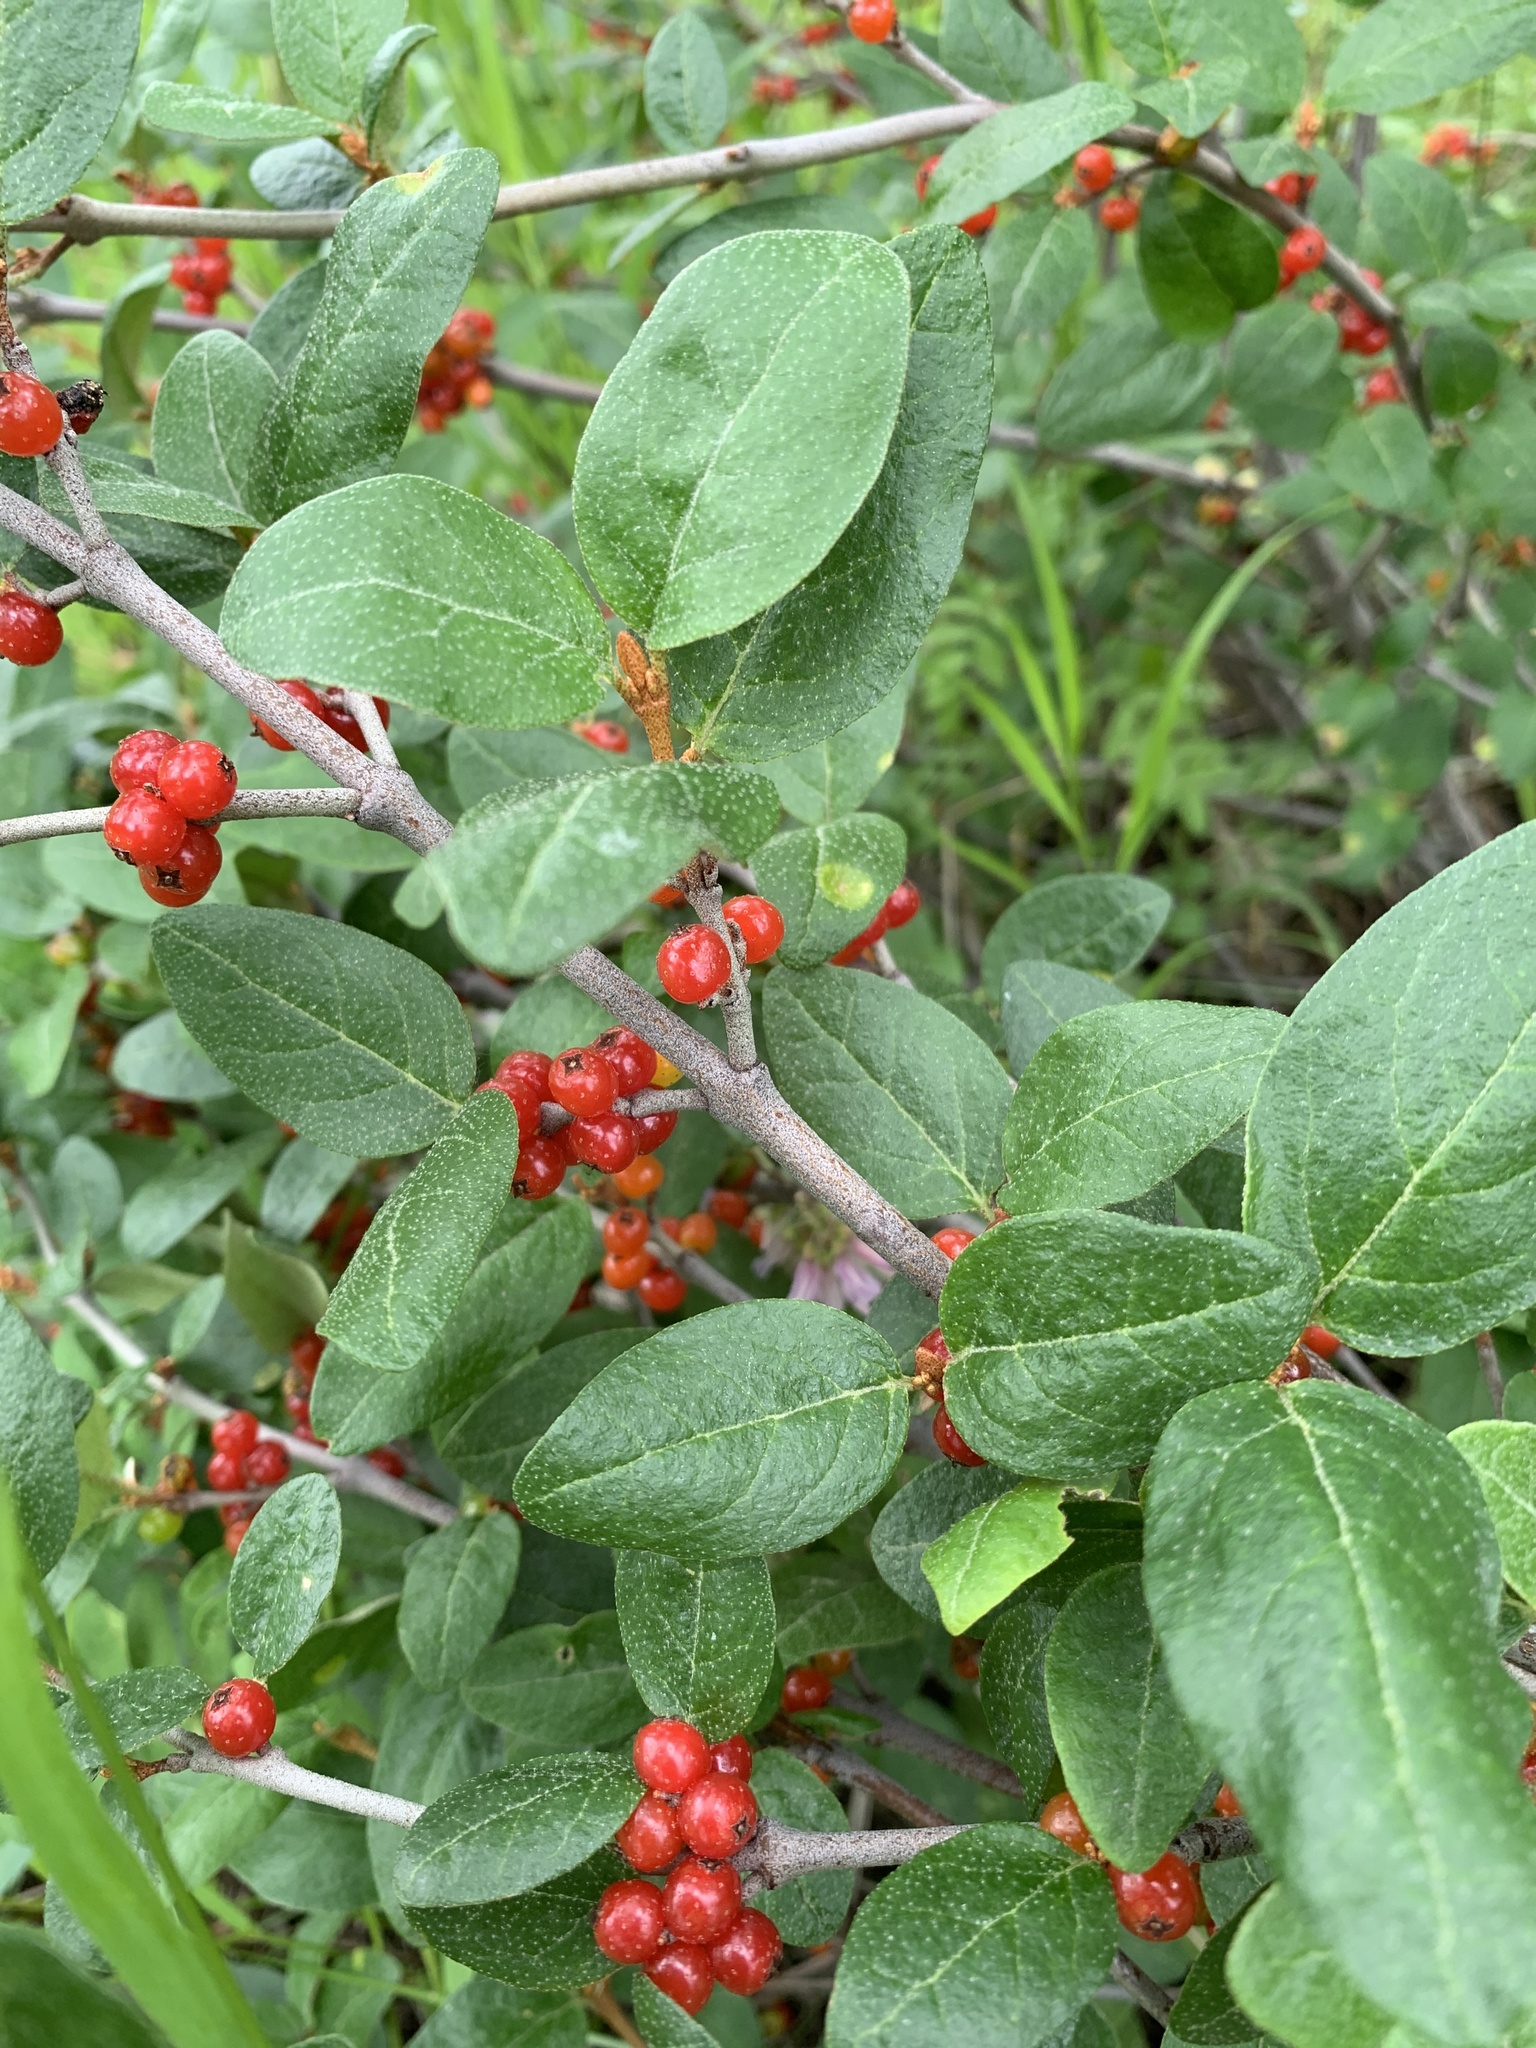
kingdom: Plantae
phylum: Tracheophyta
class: Magnoliopsida
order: Rosales
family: Elaeagnaceae
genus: Shepherdia
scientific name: Shepherdia canadensis
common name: Soapberry
